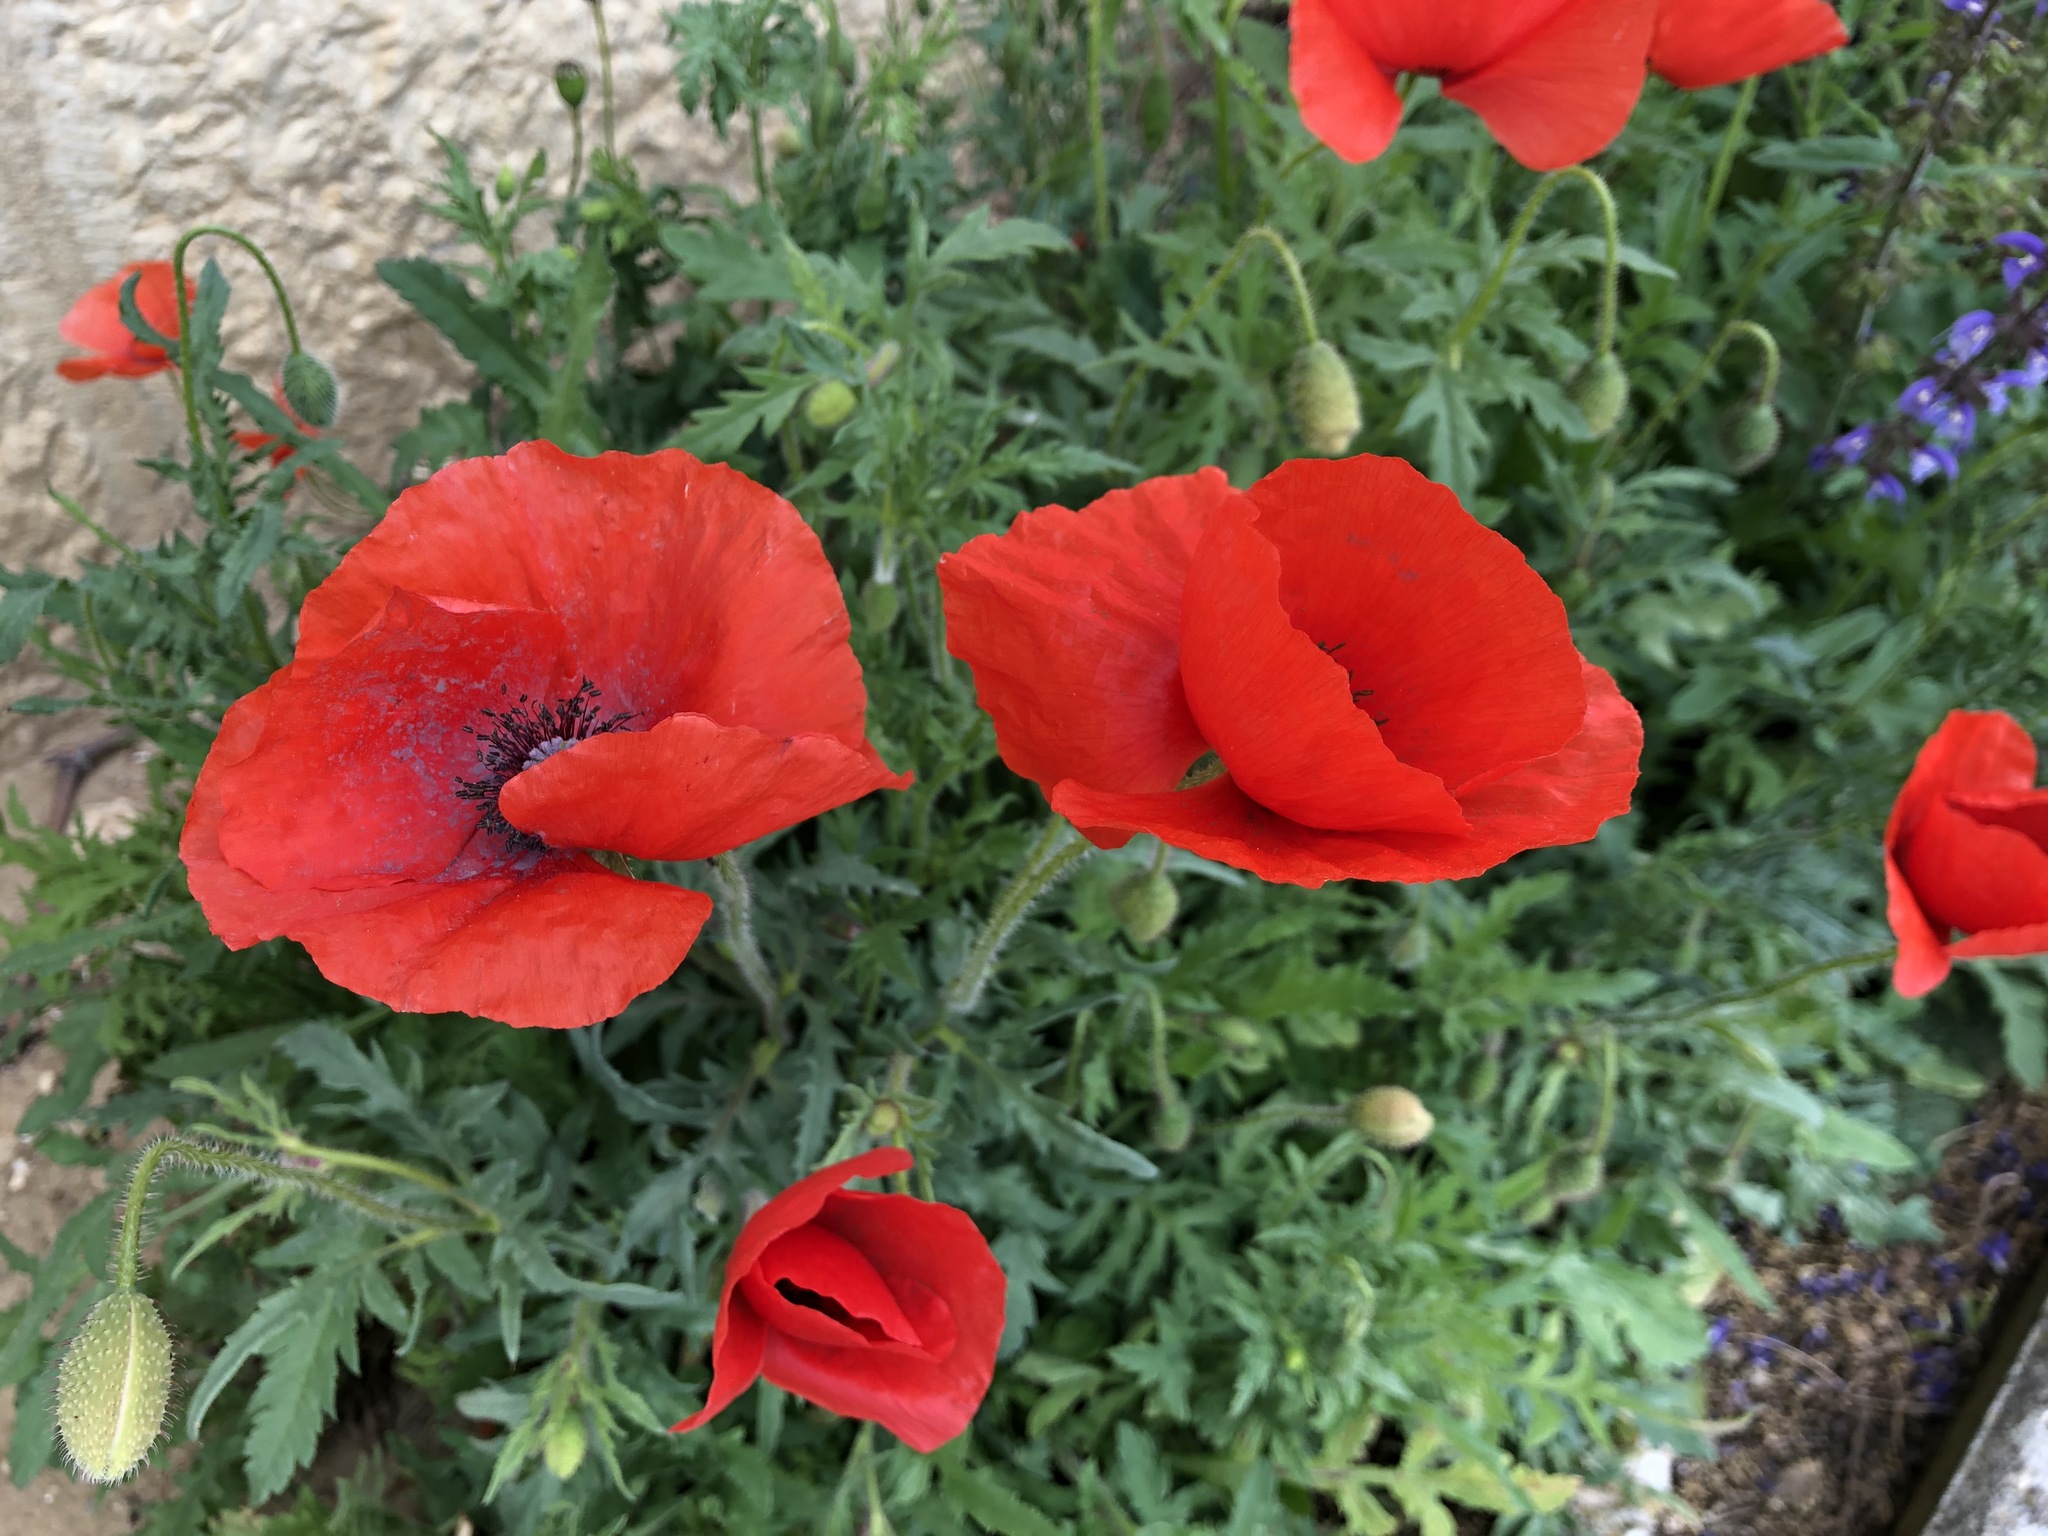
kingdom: Plantae
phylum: Tracheophyta
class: Magnoliopsida
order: Ranunculales
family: Papaveraceae
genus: Papaver
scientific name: Papaver rhoeas
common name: Corn poppy
